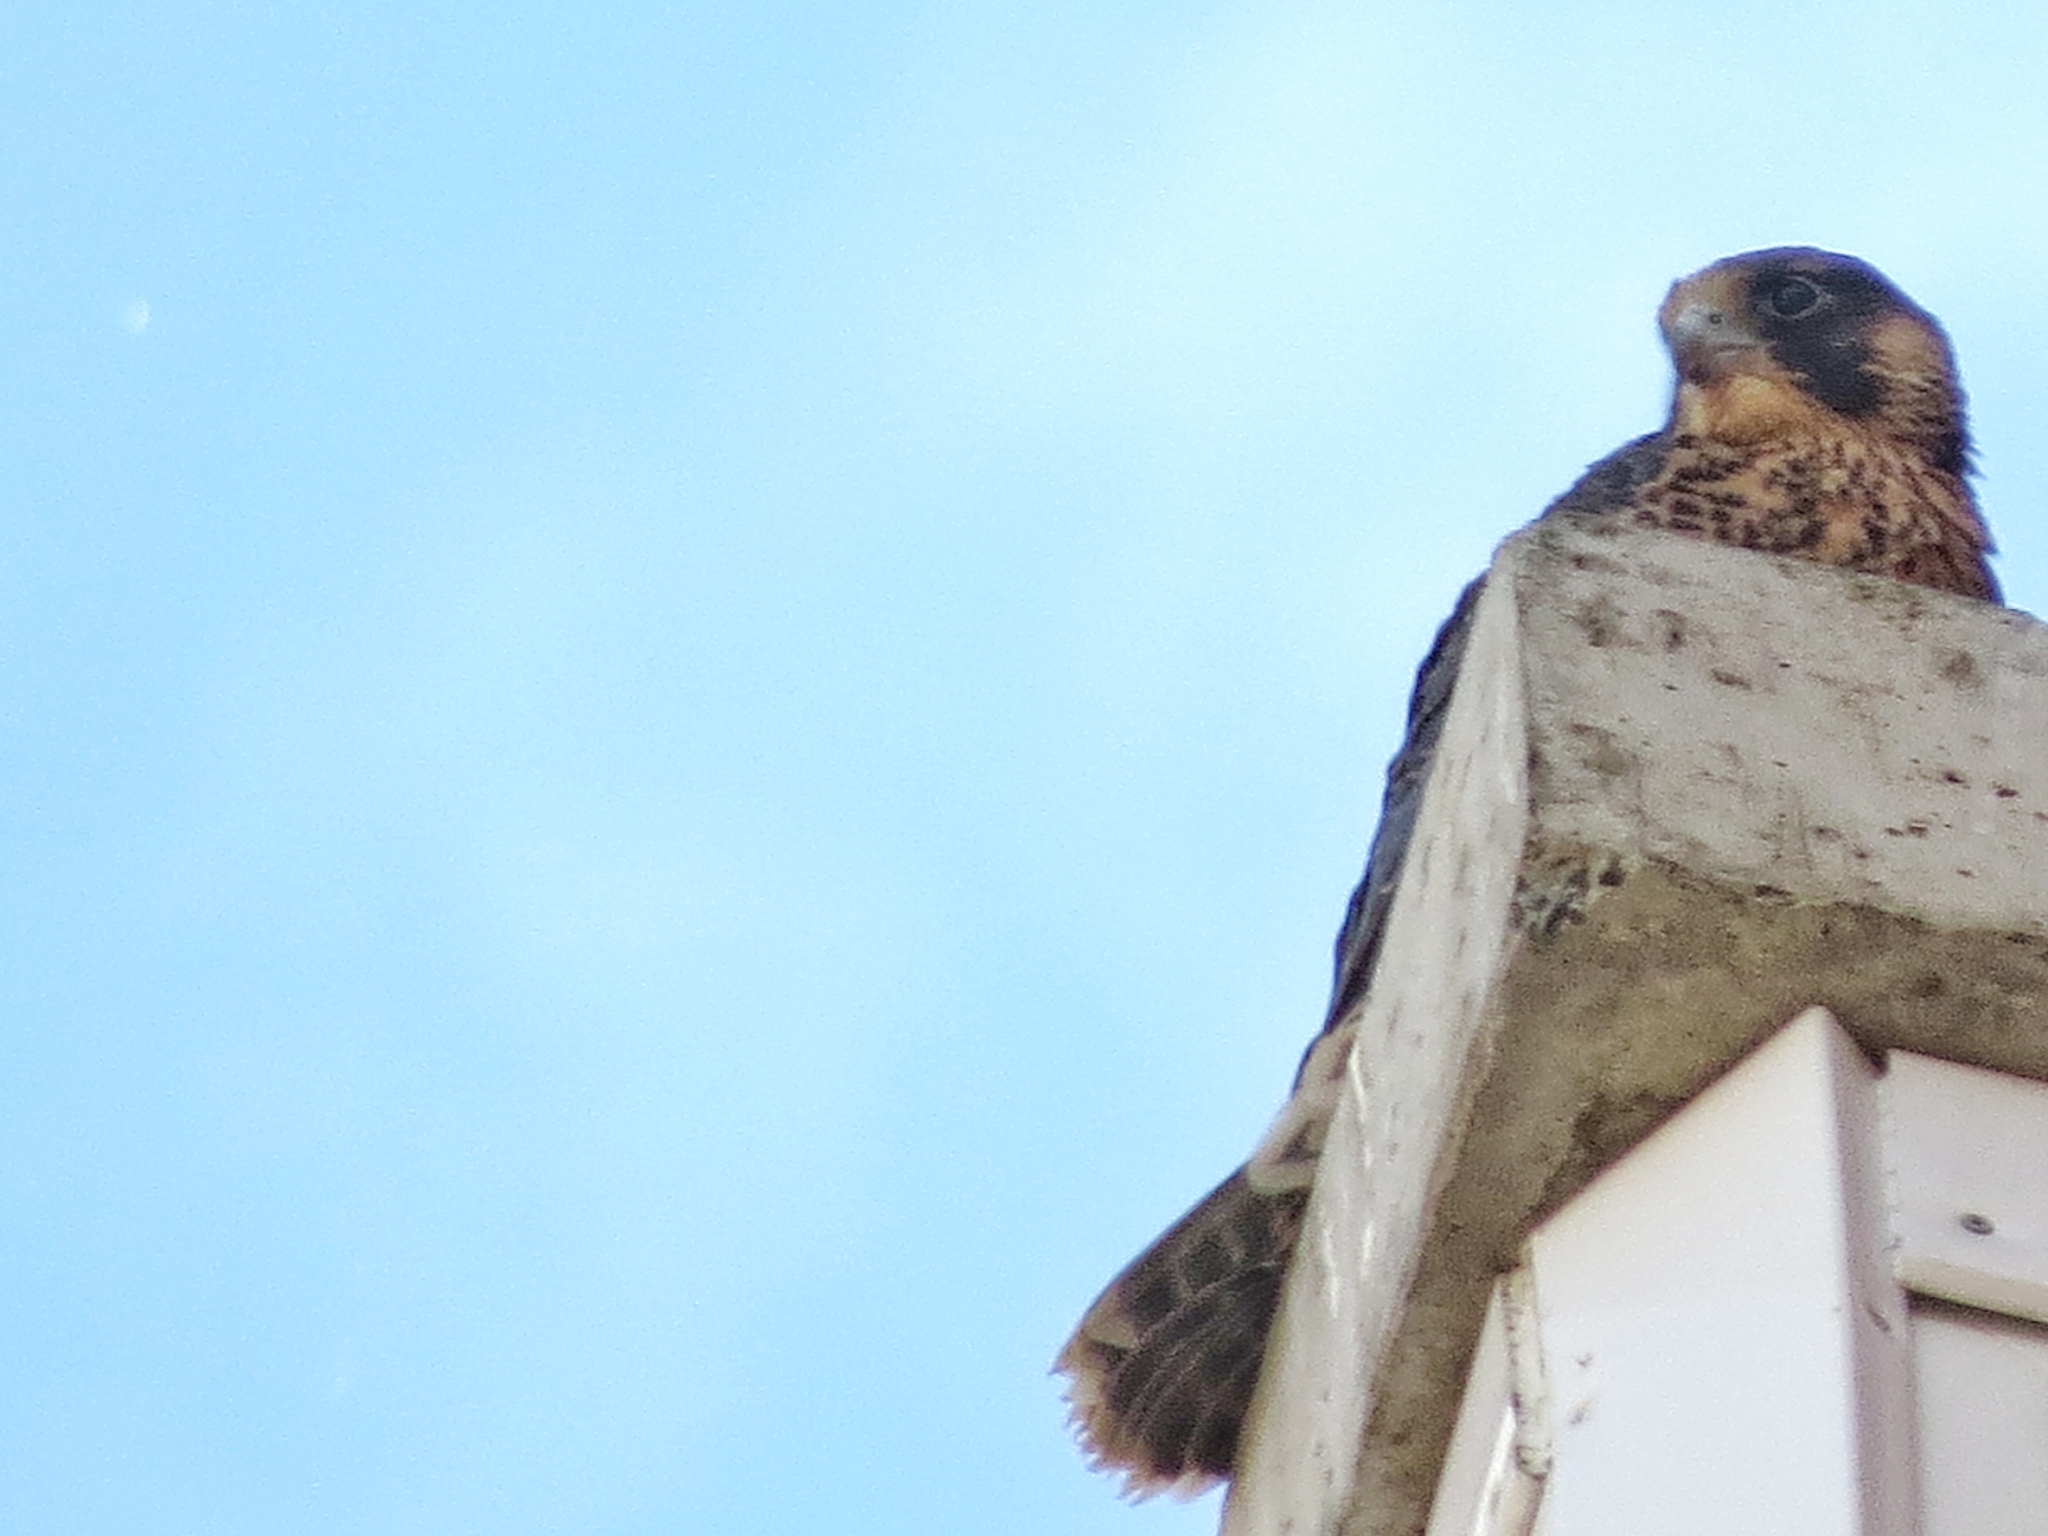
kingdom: Animalia
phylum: Chordata
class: Aves
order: Falconiformes
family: Falconidae
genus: Falco
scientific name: Falco peregrinus
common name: Peregrine falcon
